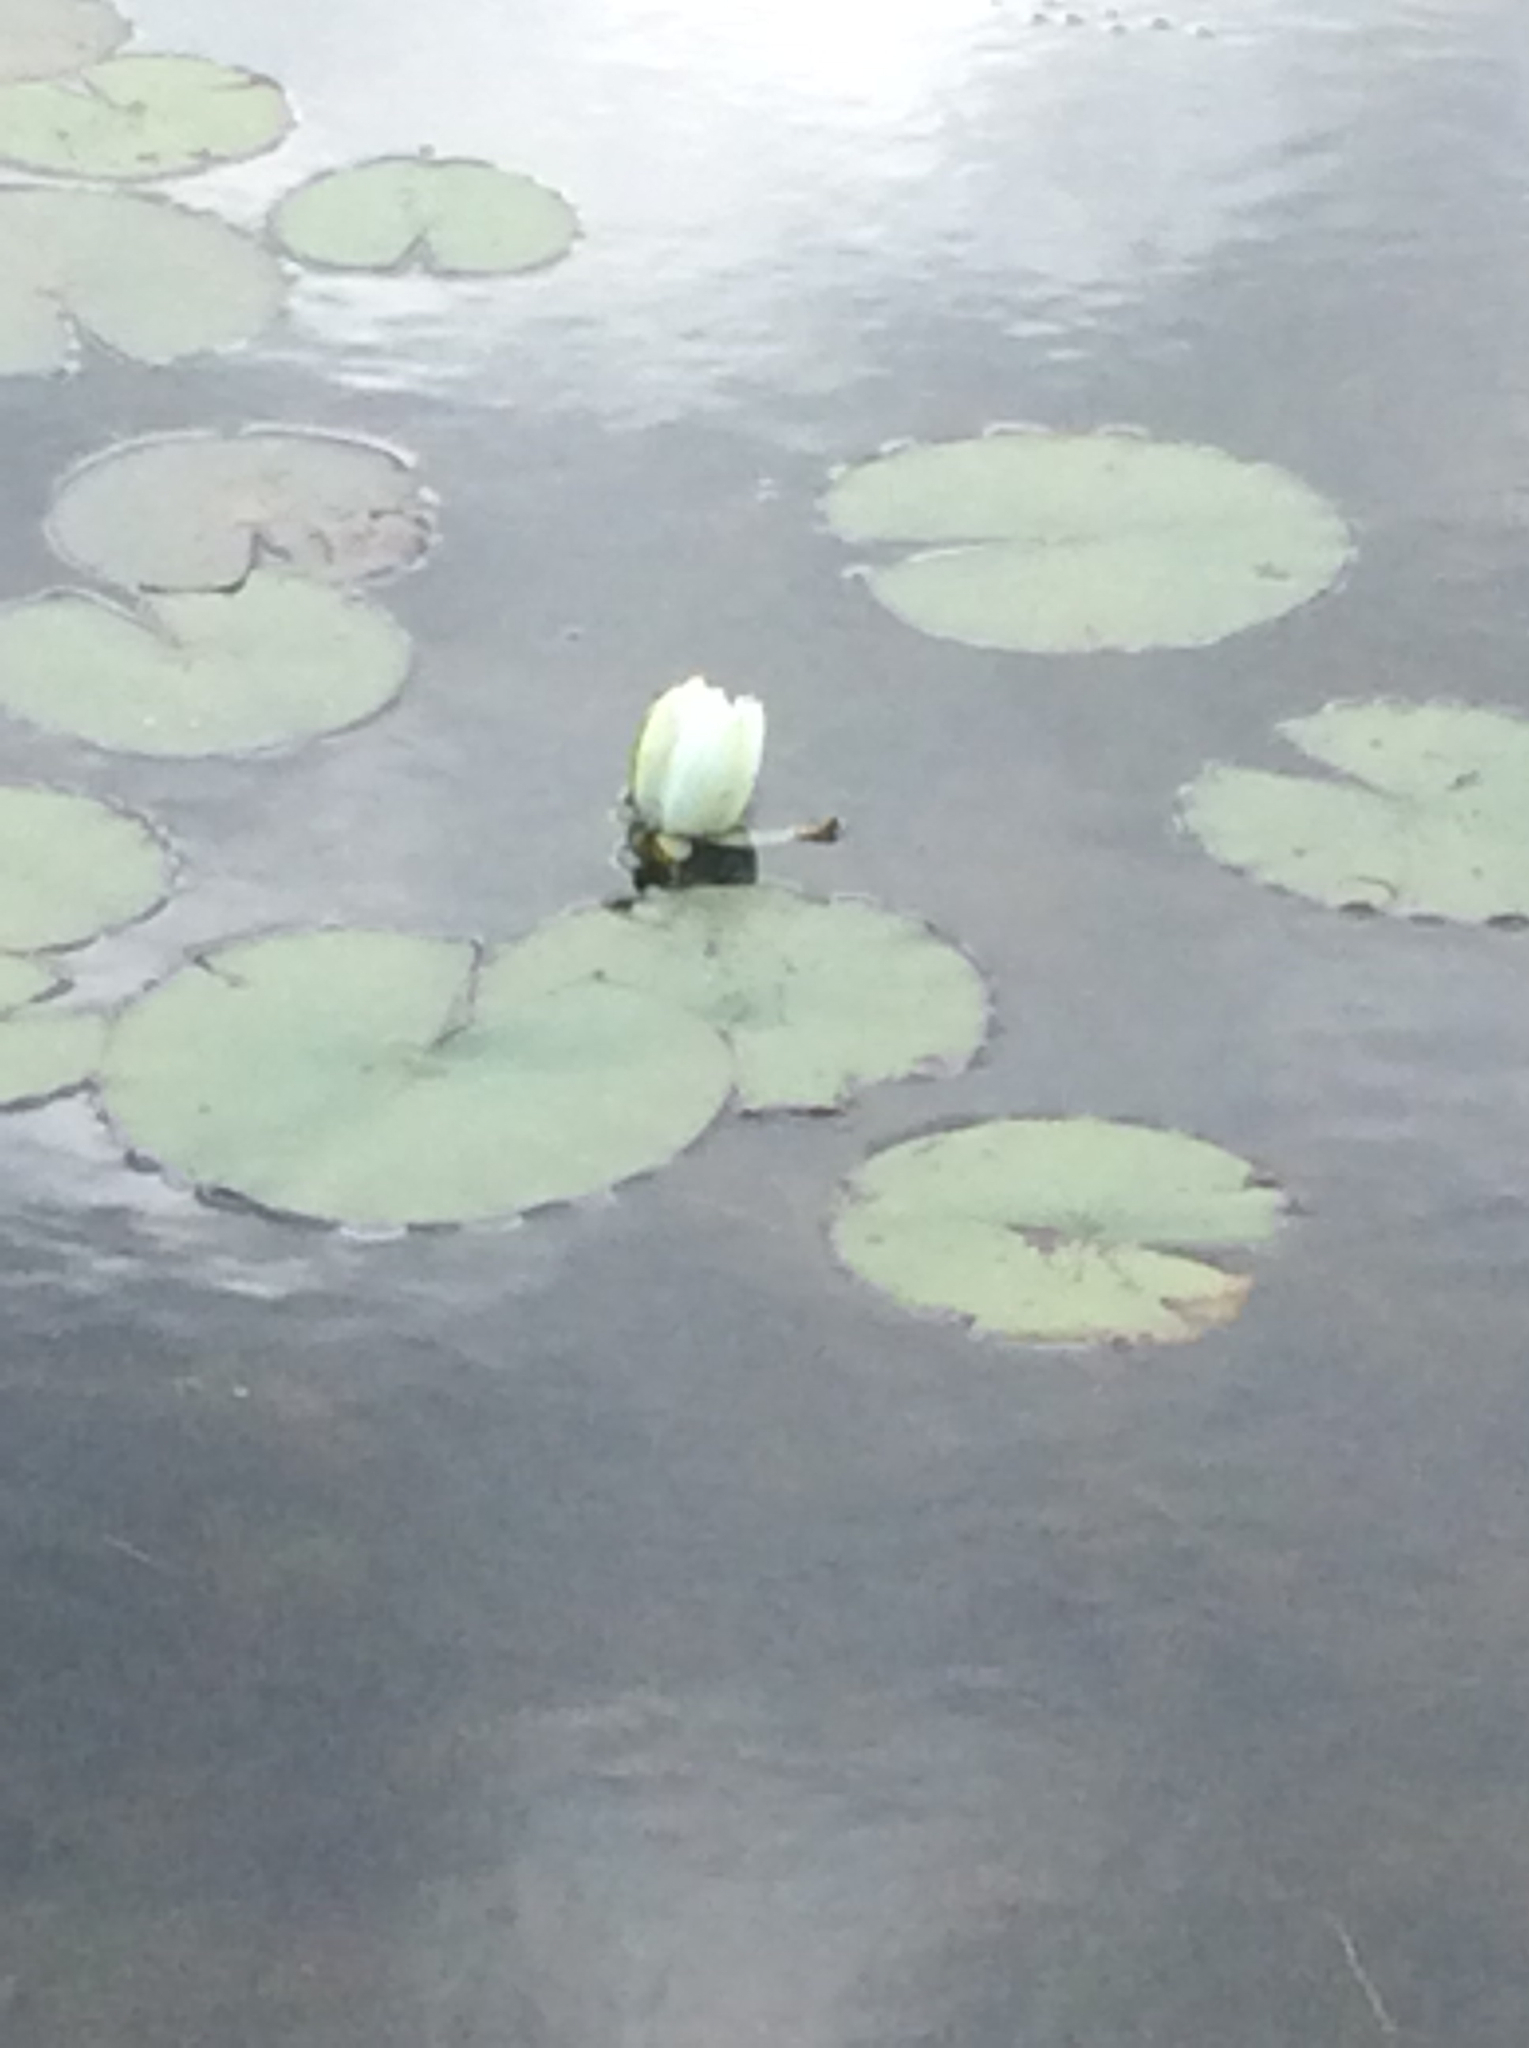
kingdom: Plantae
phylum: Tracheophyta
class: Magnoliopsida
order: Nymphaeales
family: Nymphaeaceae
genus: Nymphaea
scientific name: Nymphaea odorata
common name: Fragrant water-lily
